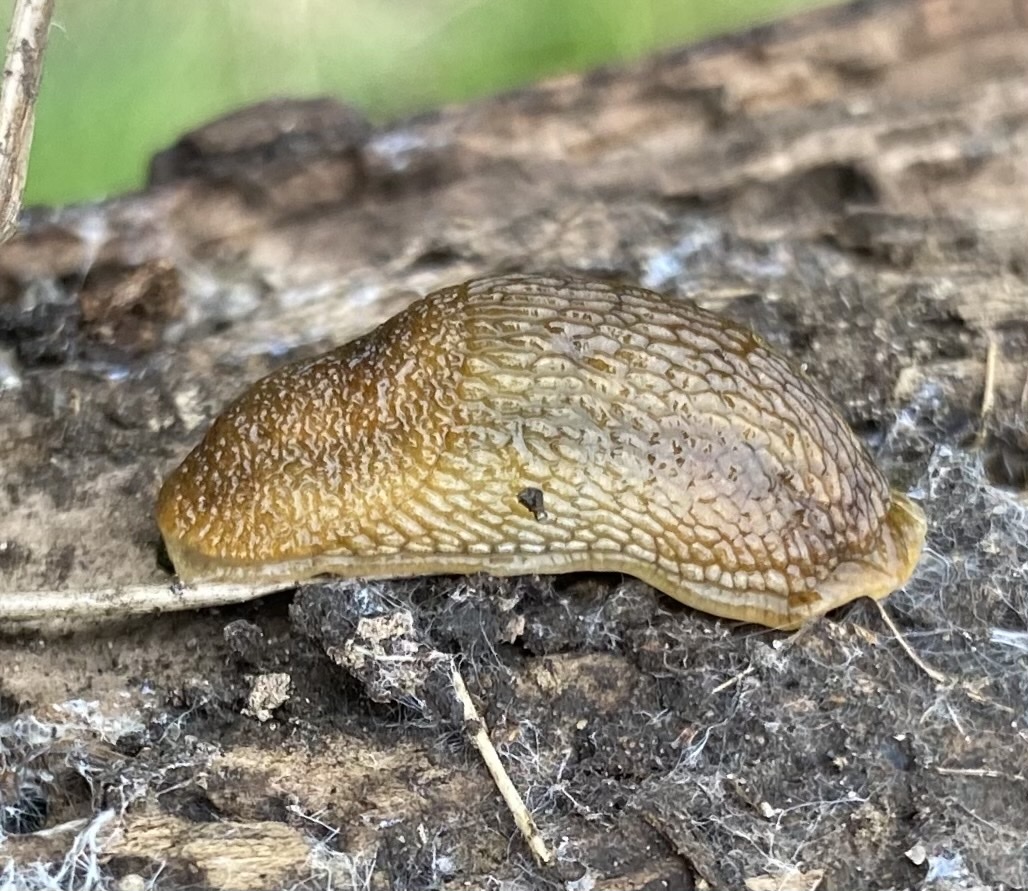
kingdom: Animalia
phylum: Mollusca
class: Gastropoda
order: Stylommatophora
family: Arionidae
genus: Arion
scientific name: Arion subfuscus
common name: Dusky arion
